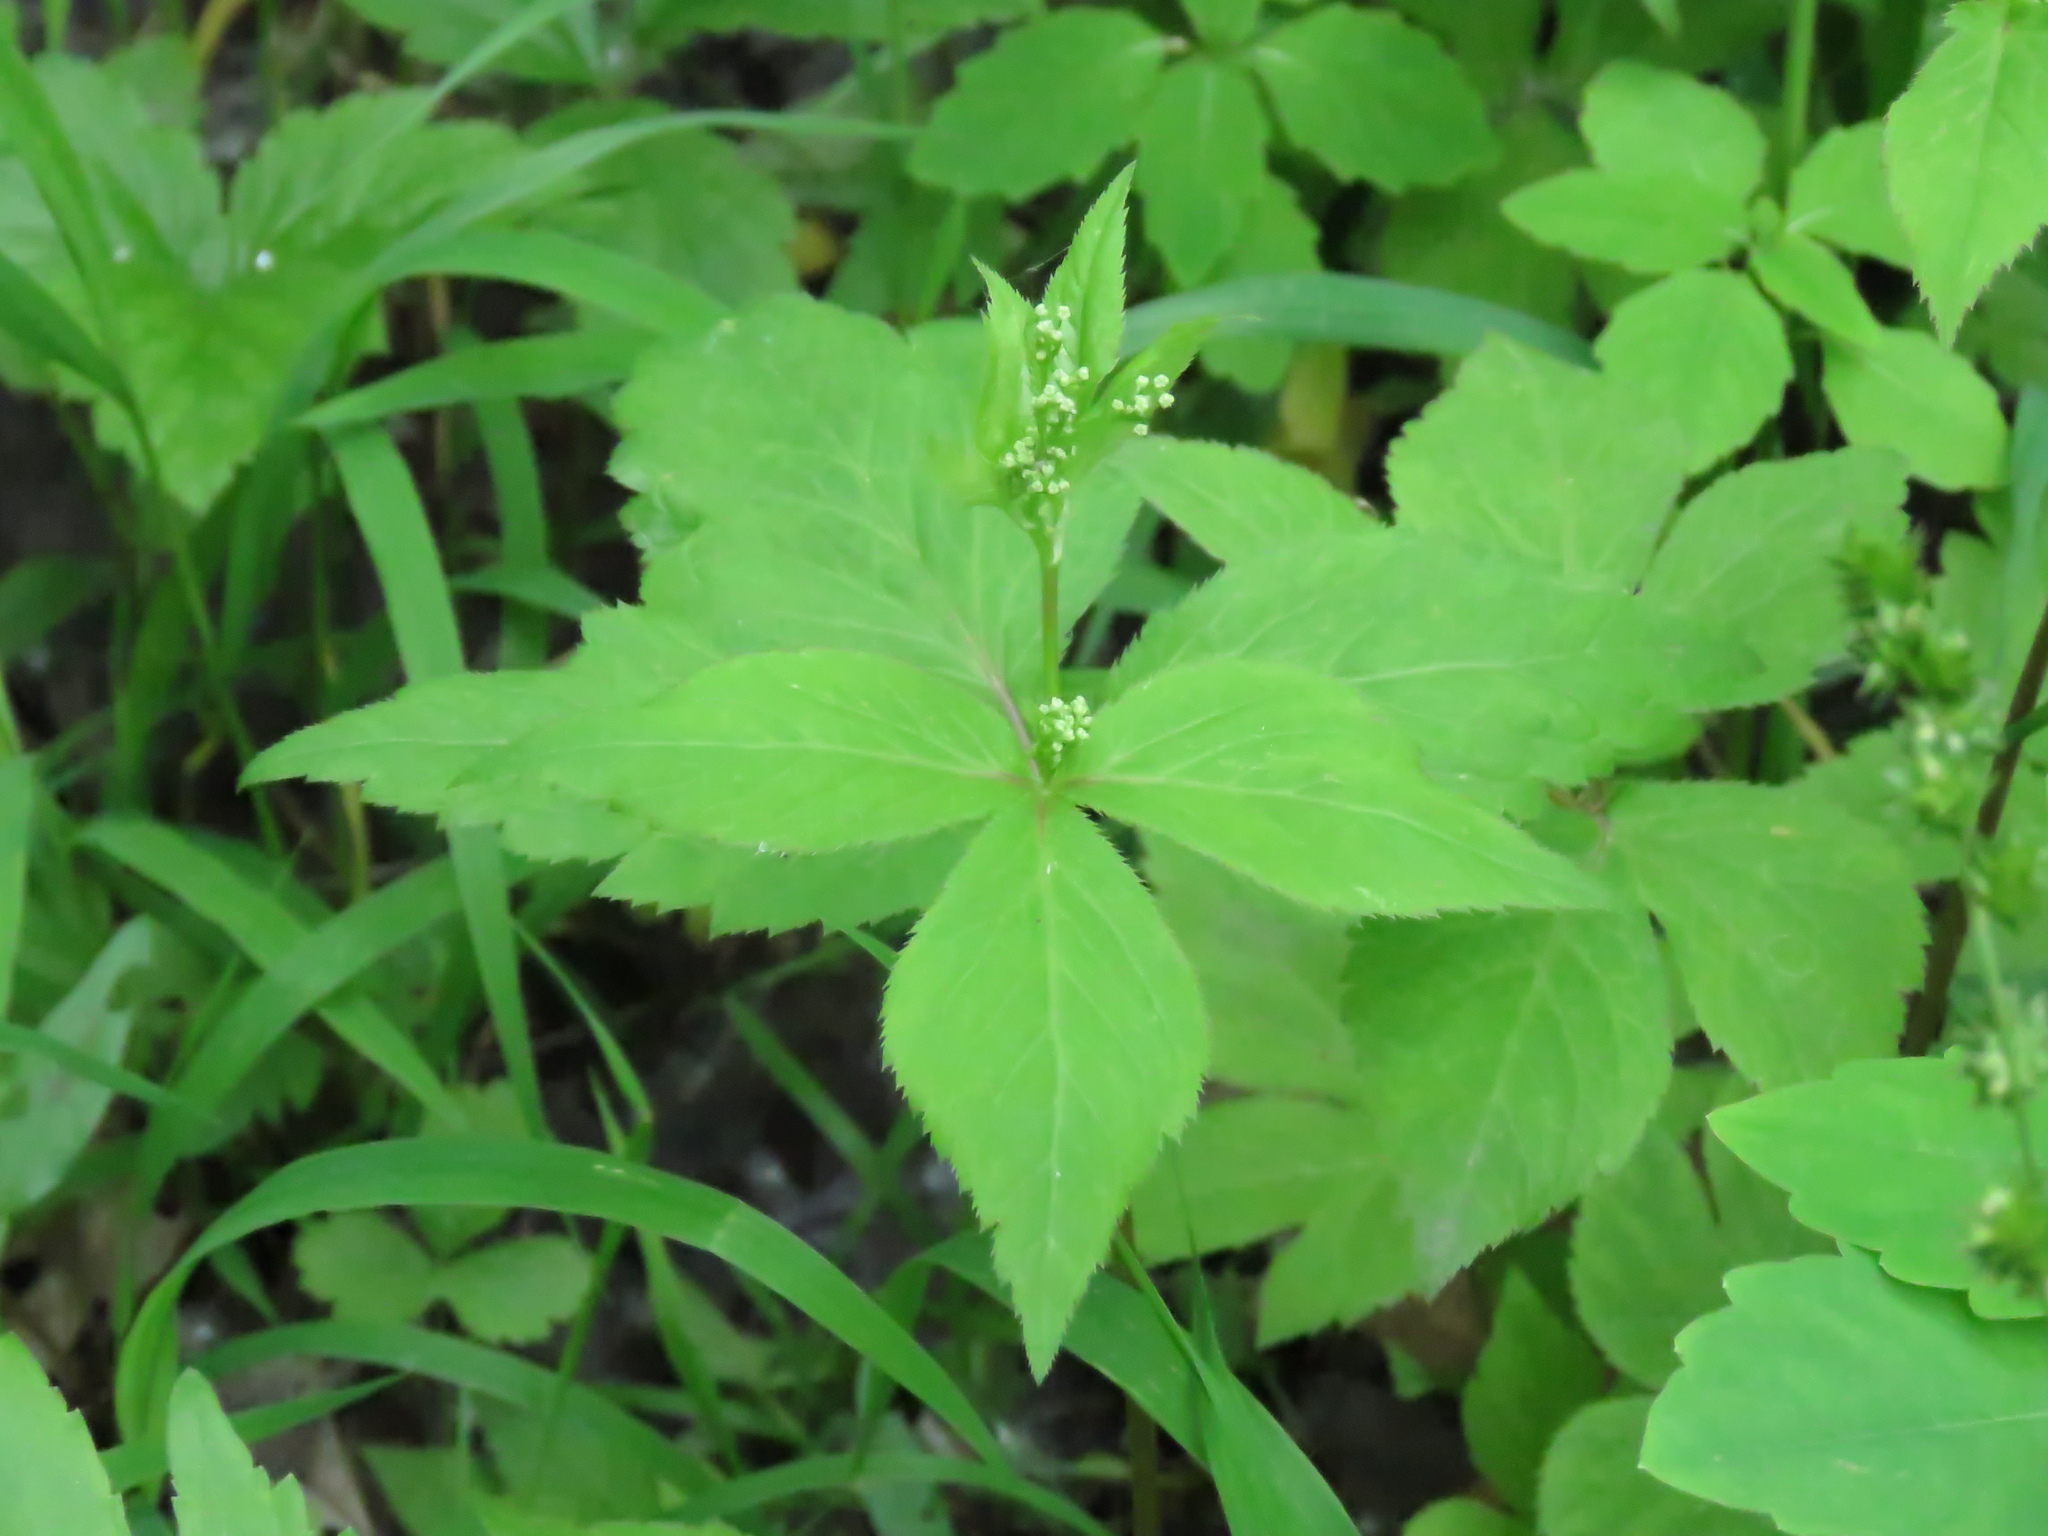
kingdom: Plantae
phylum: Tracheophyta
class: Magnoliopsida
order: Apiales
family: Apiaceae
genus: Cryptotaenia
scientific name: Cryptotaenia canadensis
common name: Honewort
